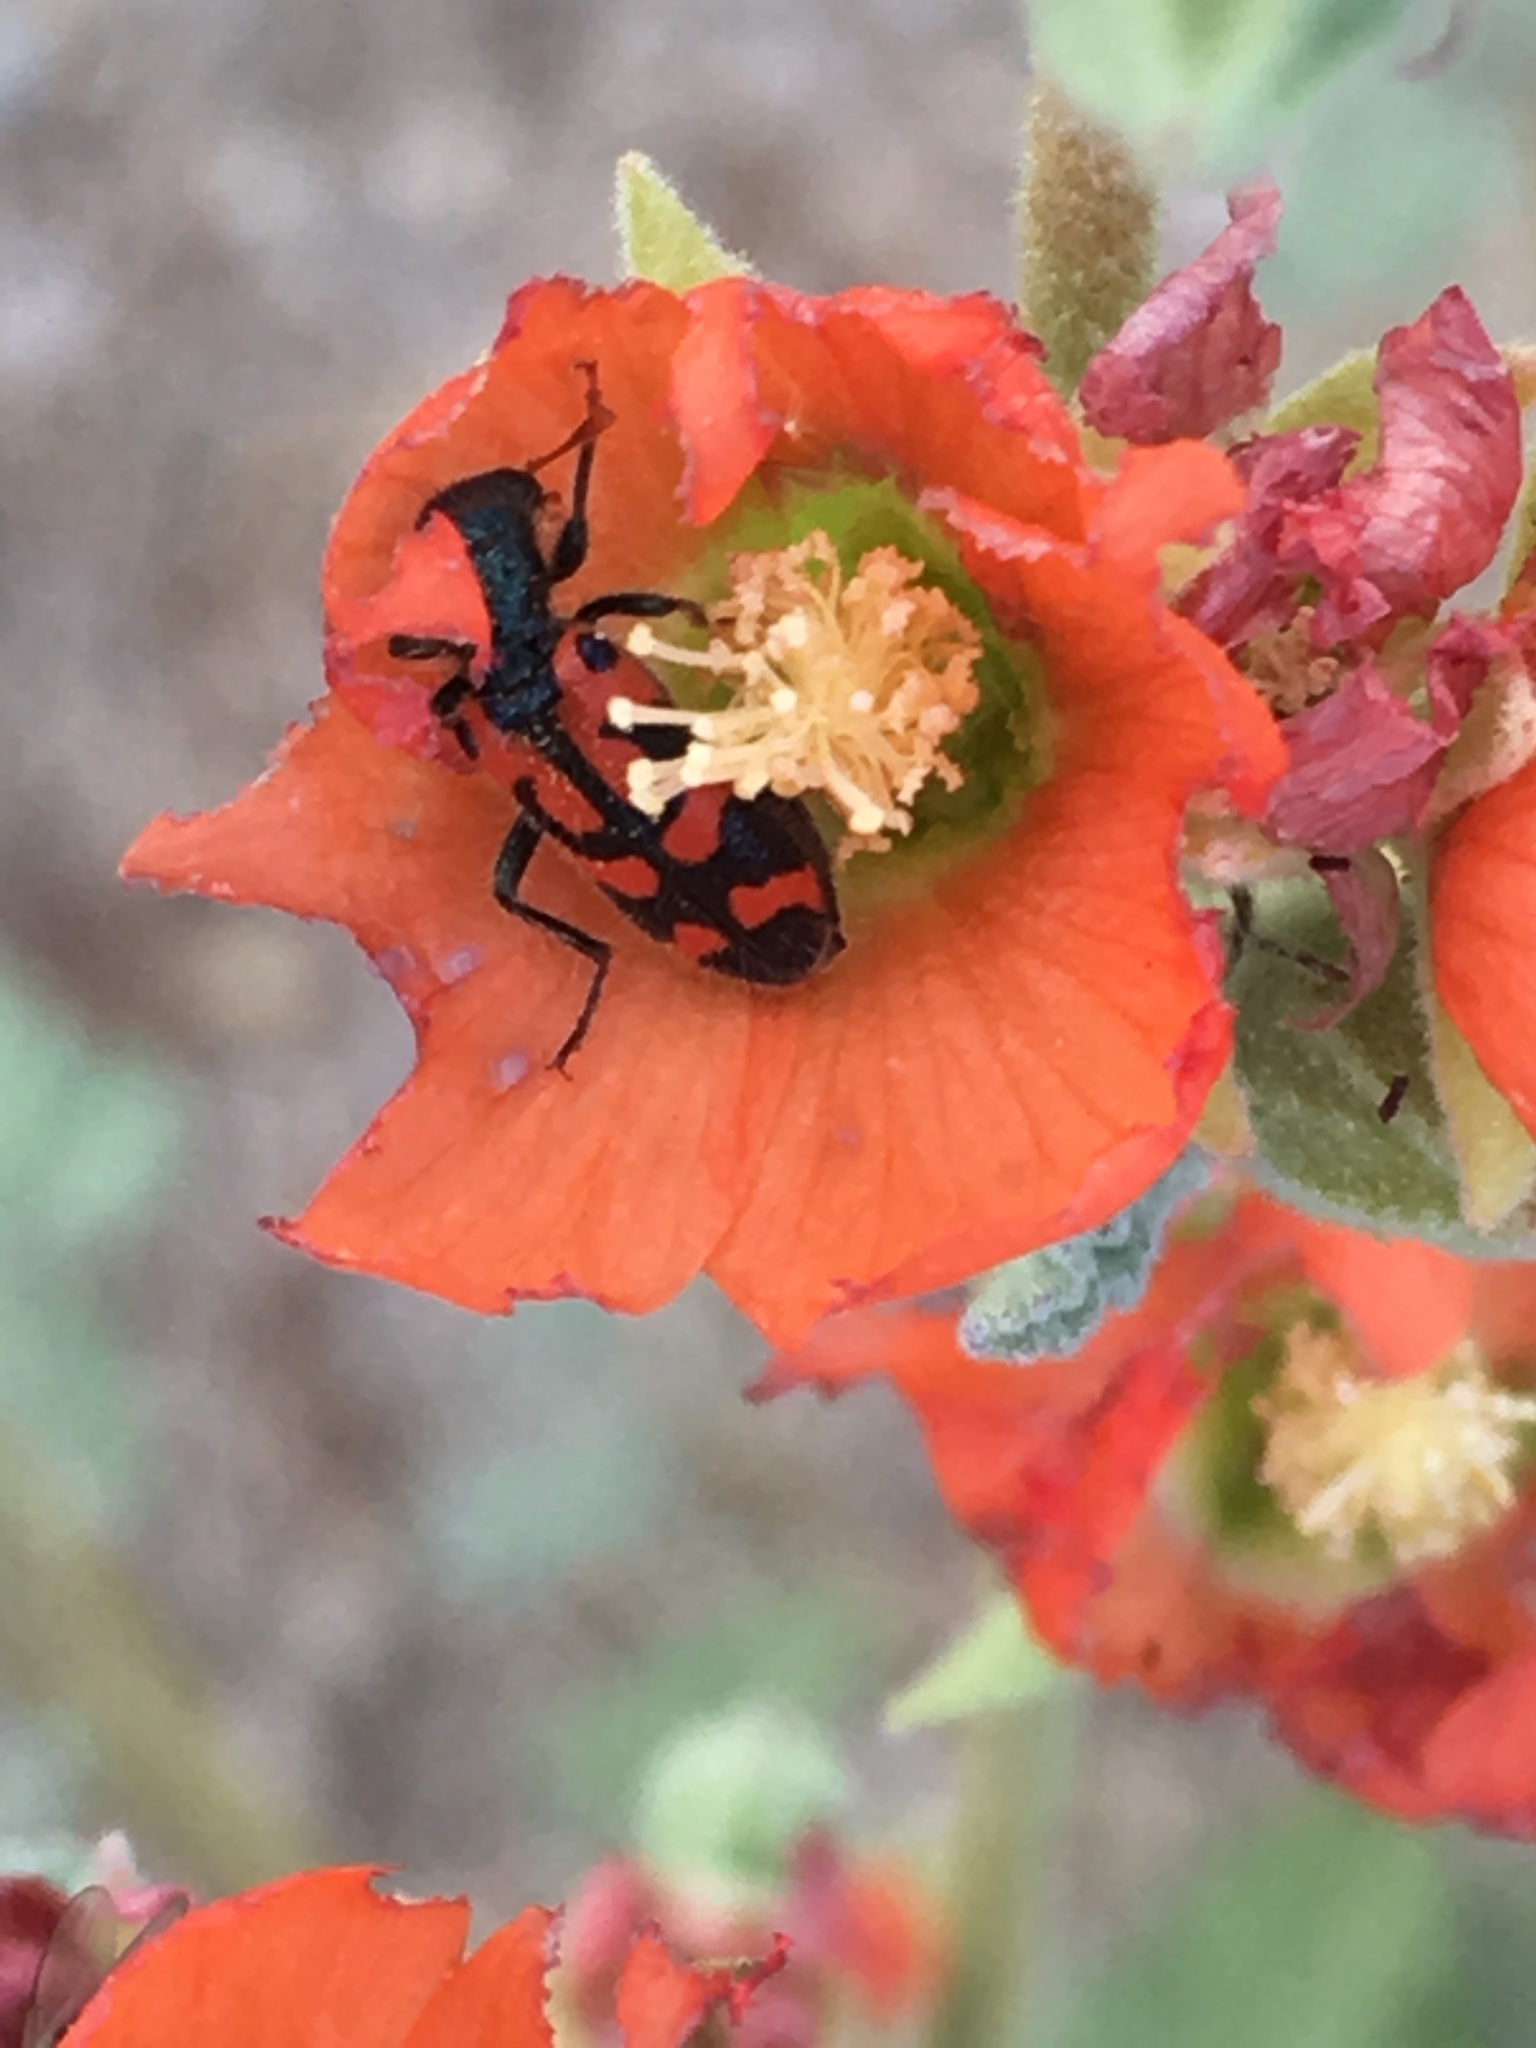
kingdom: Animalia
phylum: Arthropoda
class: Insecta
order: Coleoptera
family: Cleridae
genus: Trichodes
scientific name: Trichodes ornatus
